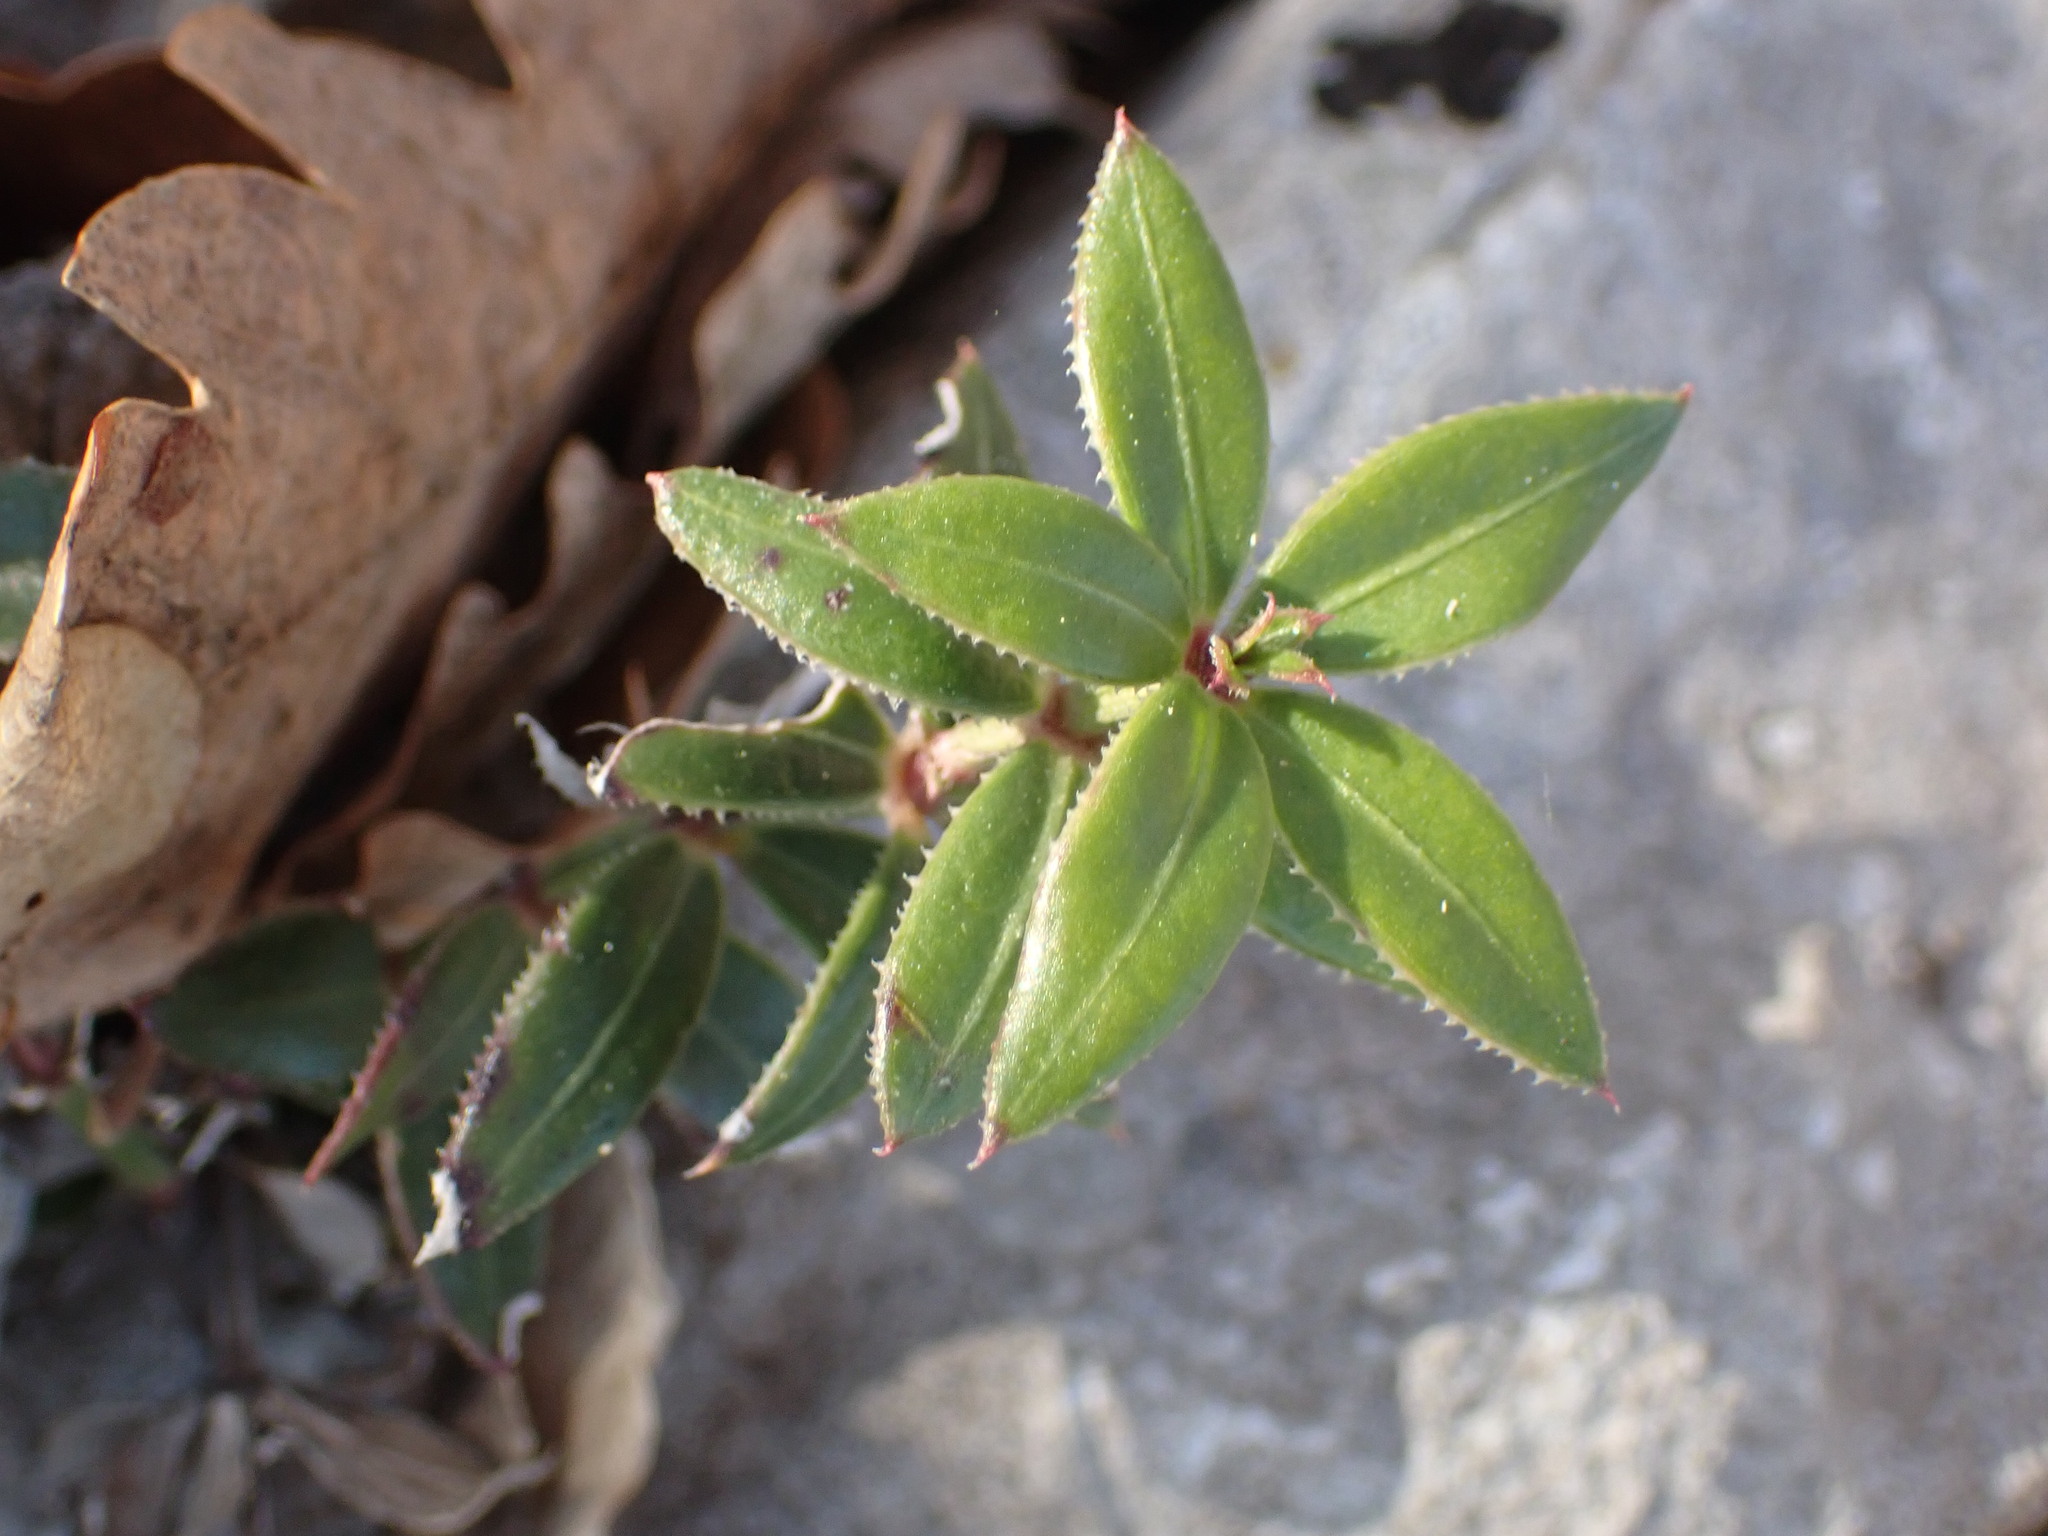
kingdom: Plantae
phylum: Tracheophyta
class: Magnoliopsida
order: Gentianales
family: Rubiaceae
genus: Rubia
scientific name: Rubia peregrina
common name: Wild madder
